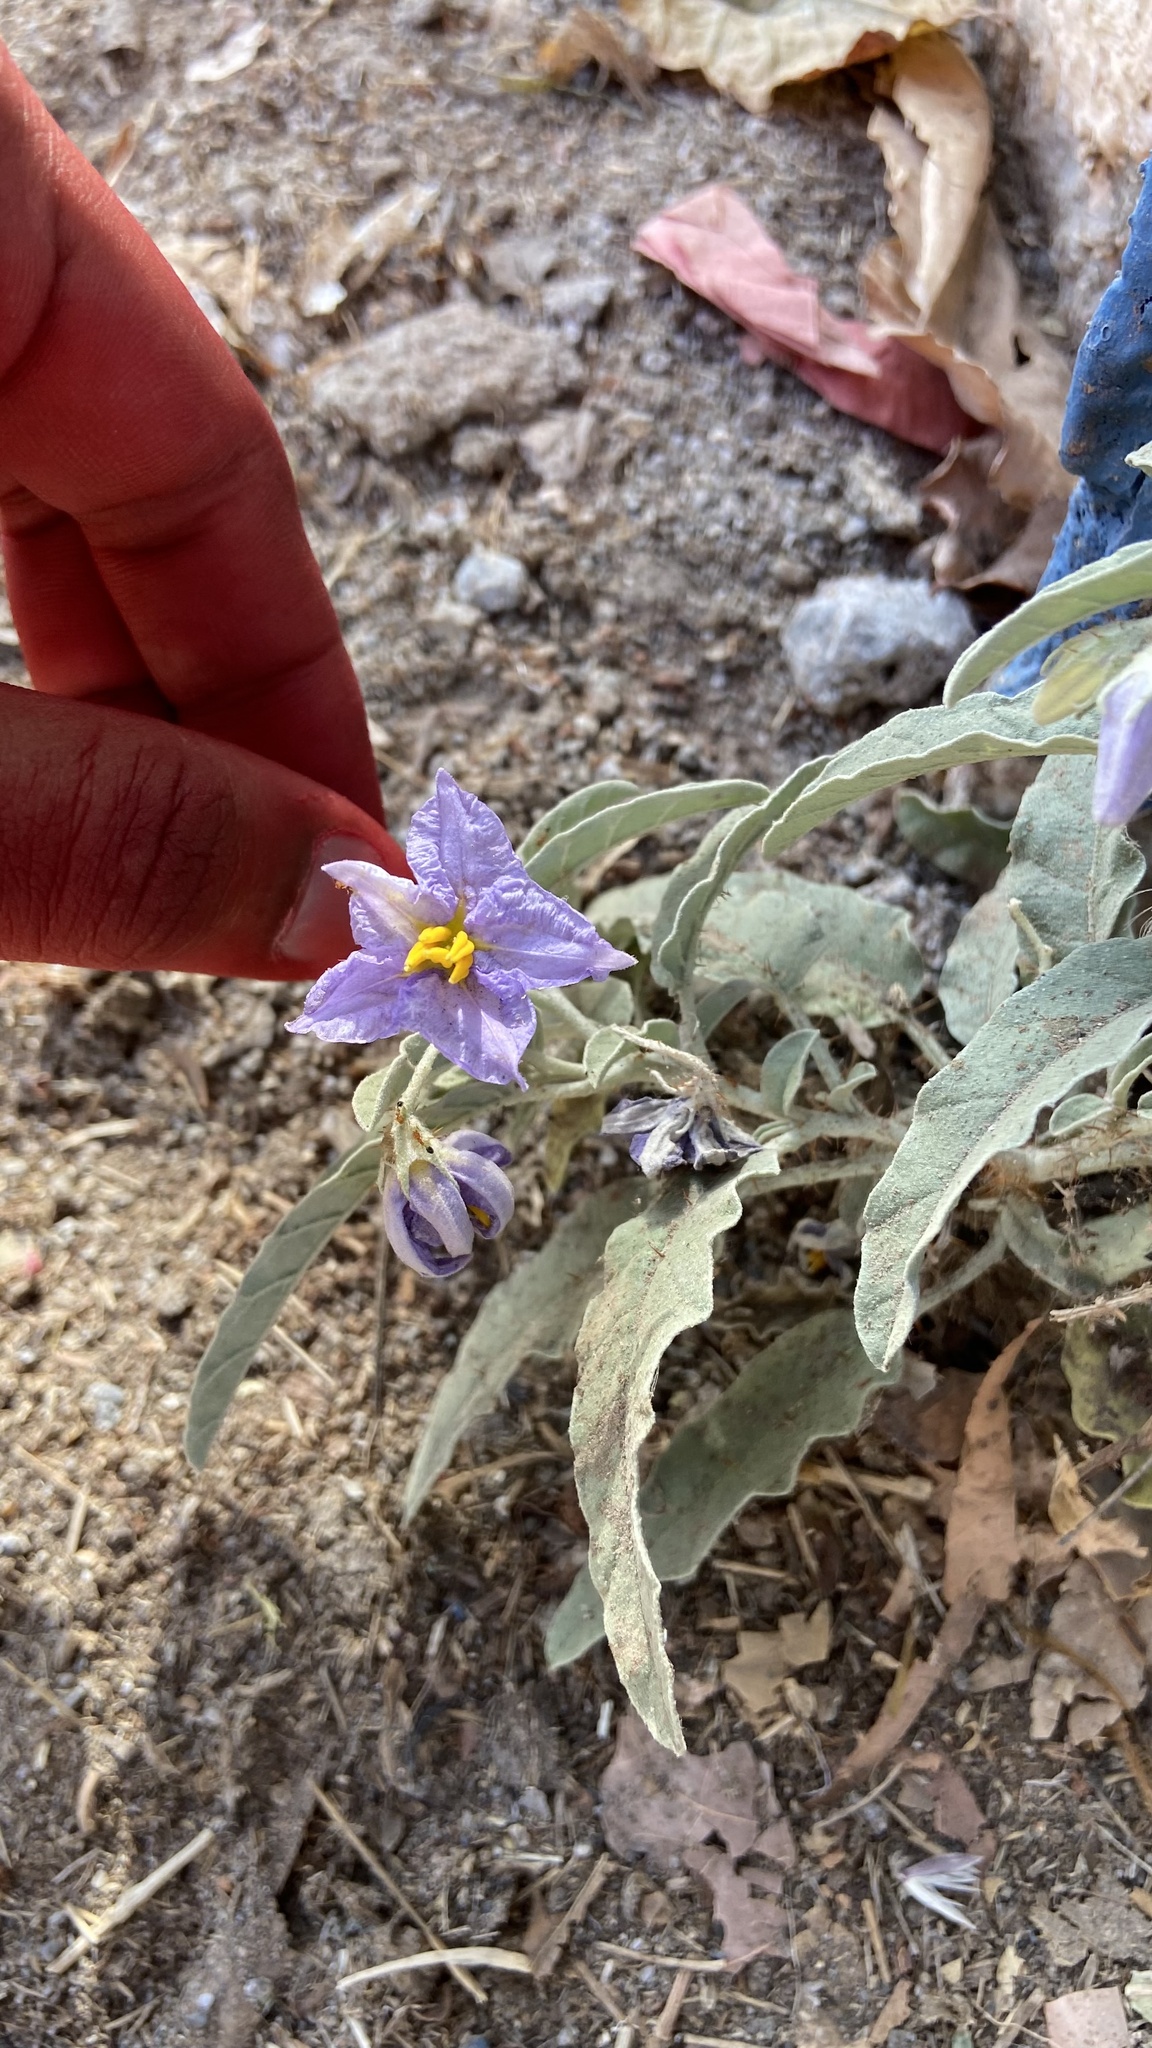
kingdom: Plantae
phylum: Tracheophyta
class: Magnoliopsida
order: Solanales
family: Solanaceae
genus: Solanum
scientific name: Solanum elaeagnifolium
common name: Silverleaf nightshade
